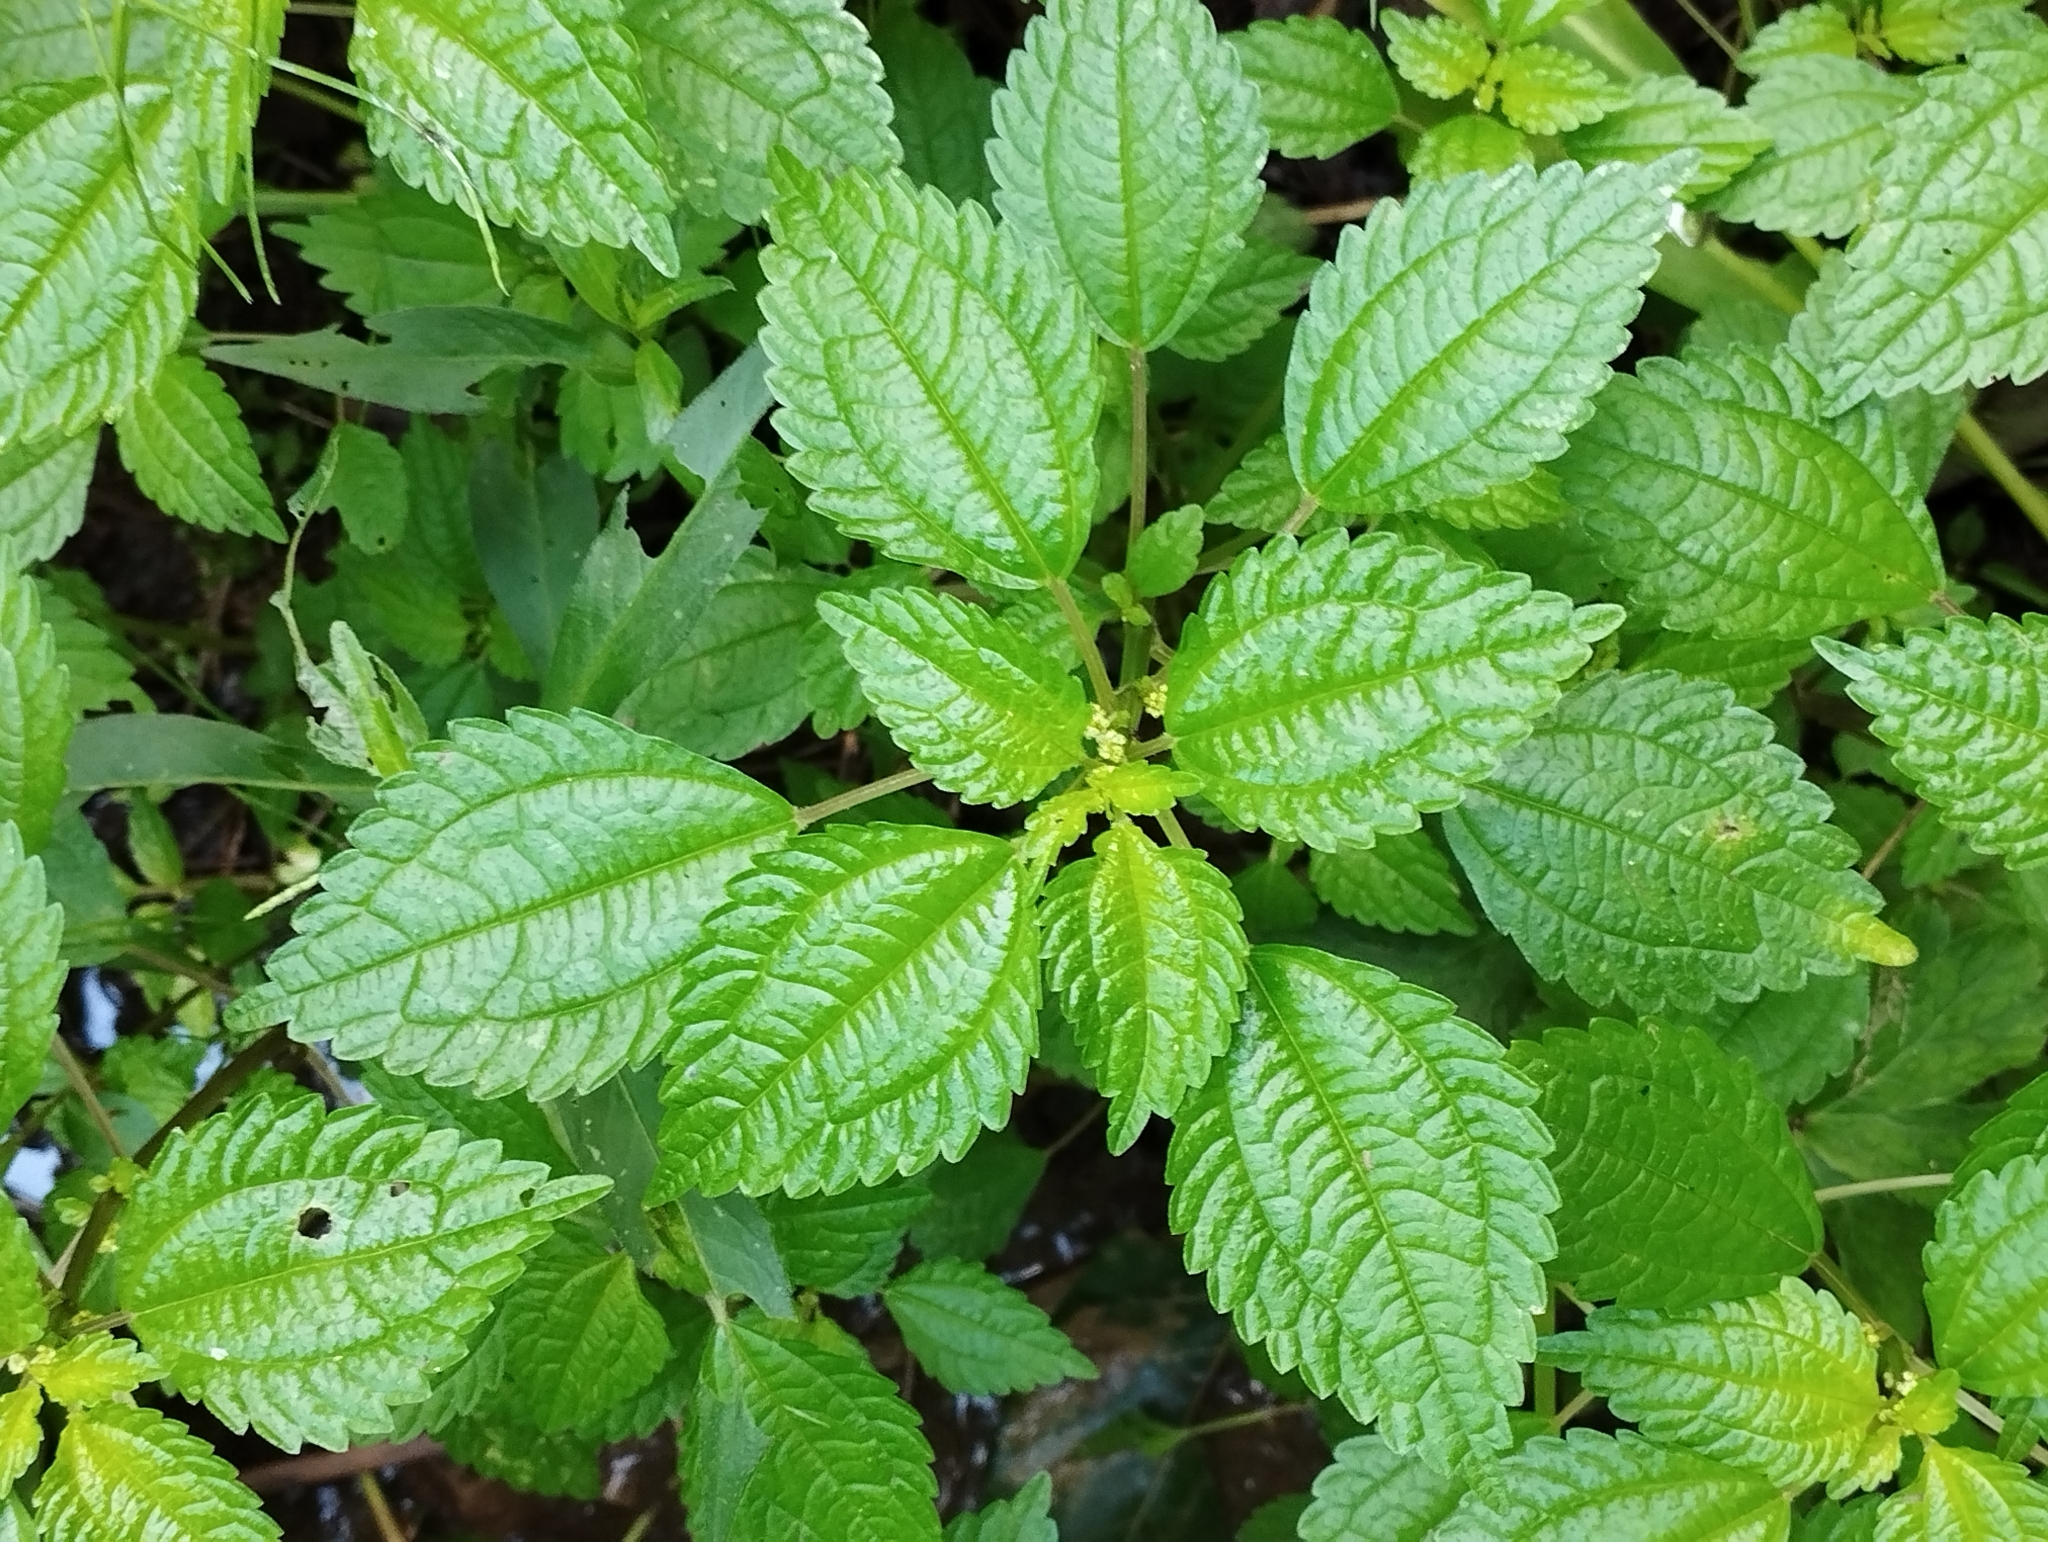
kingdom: Plantae
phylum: Tracheophyta
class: Magnoliopsida
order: Rosales
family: Urticaceae
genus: Pilea
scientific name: Pilea pumila
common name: Clearweed
